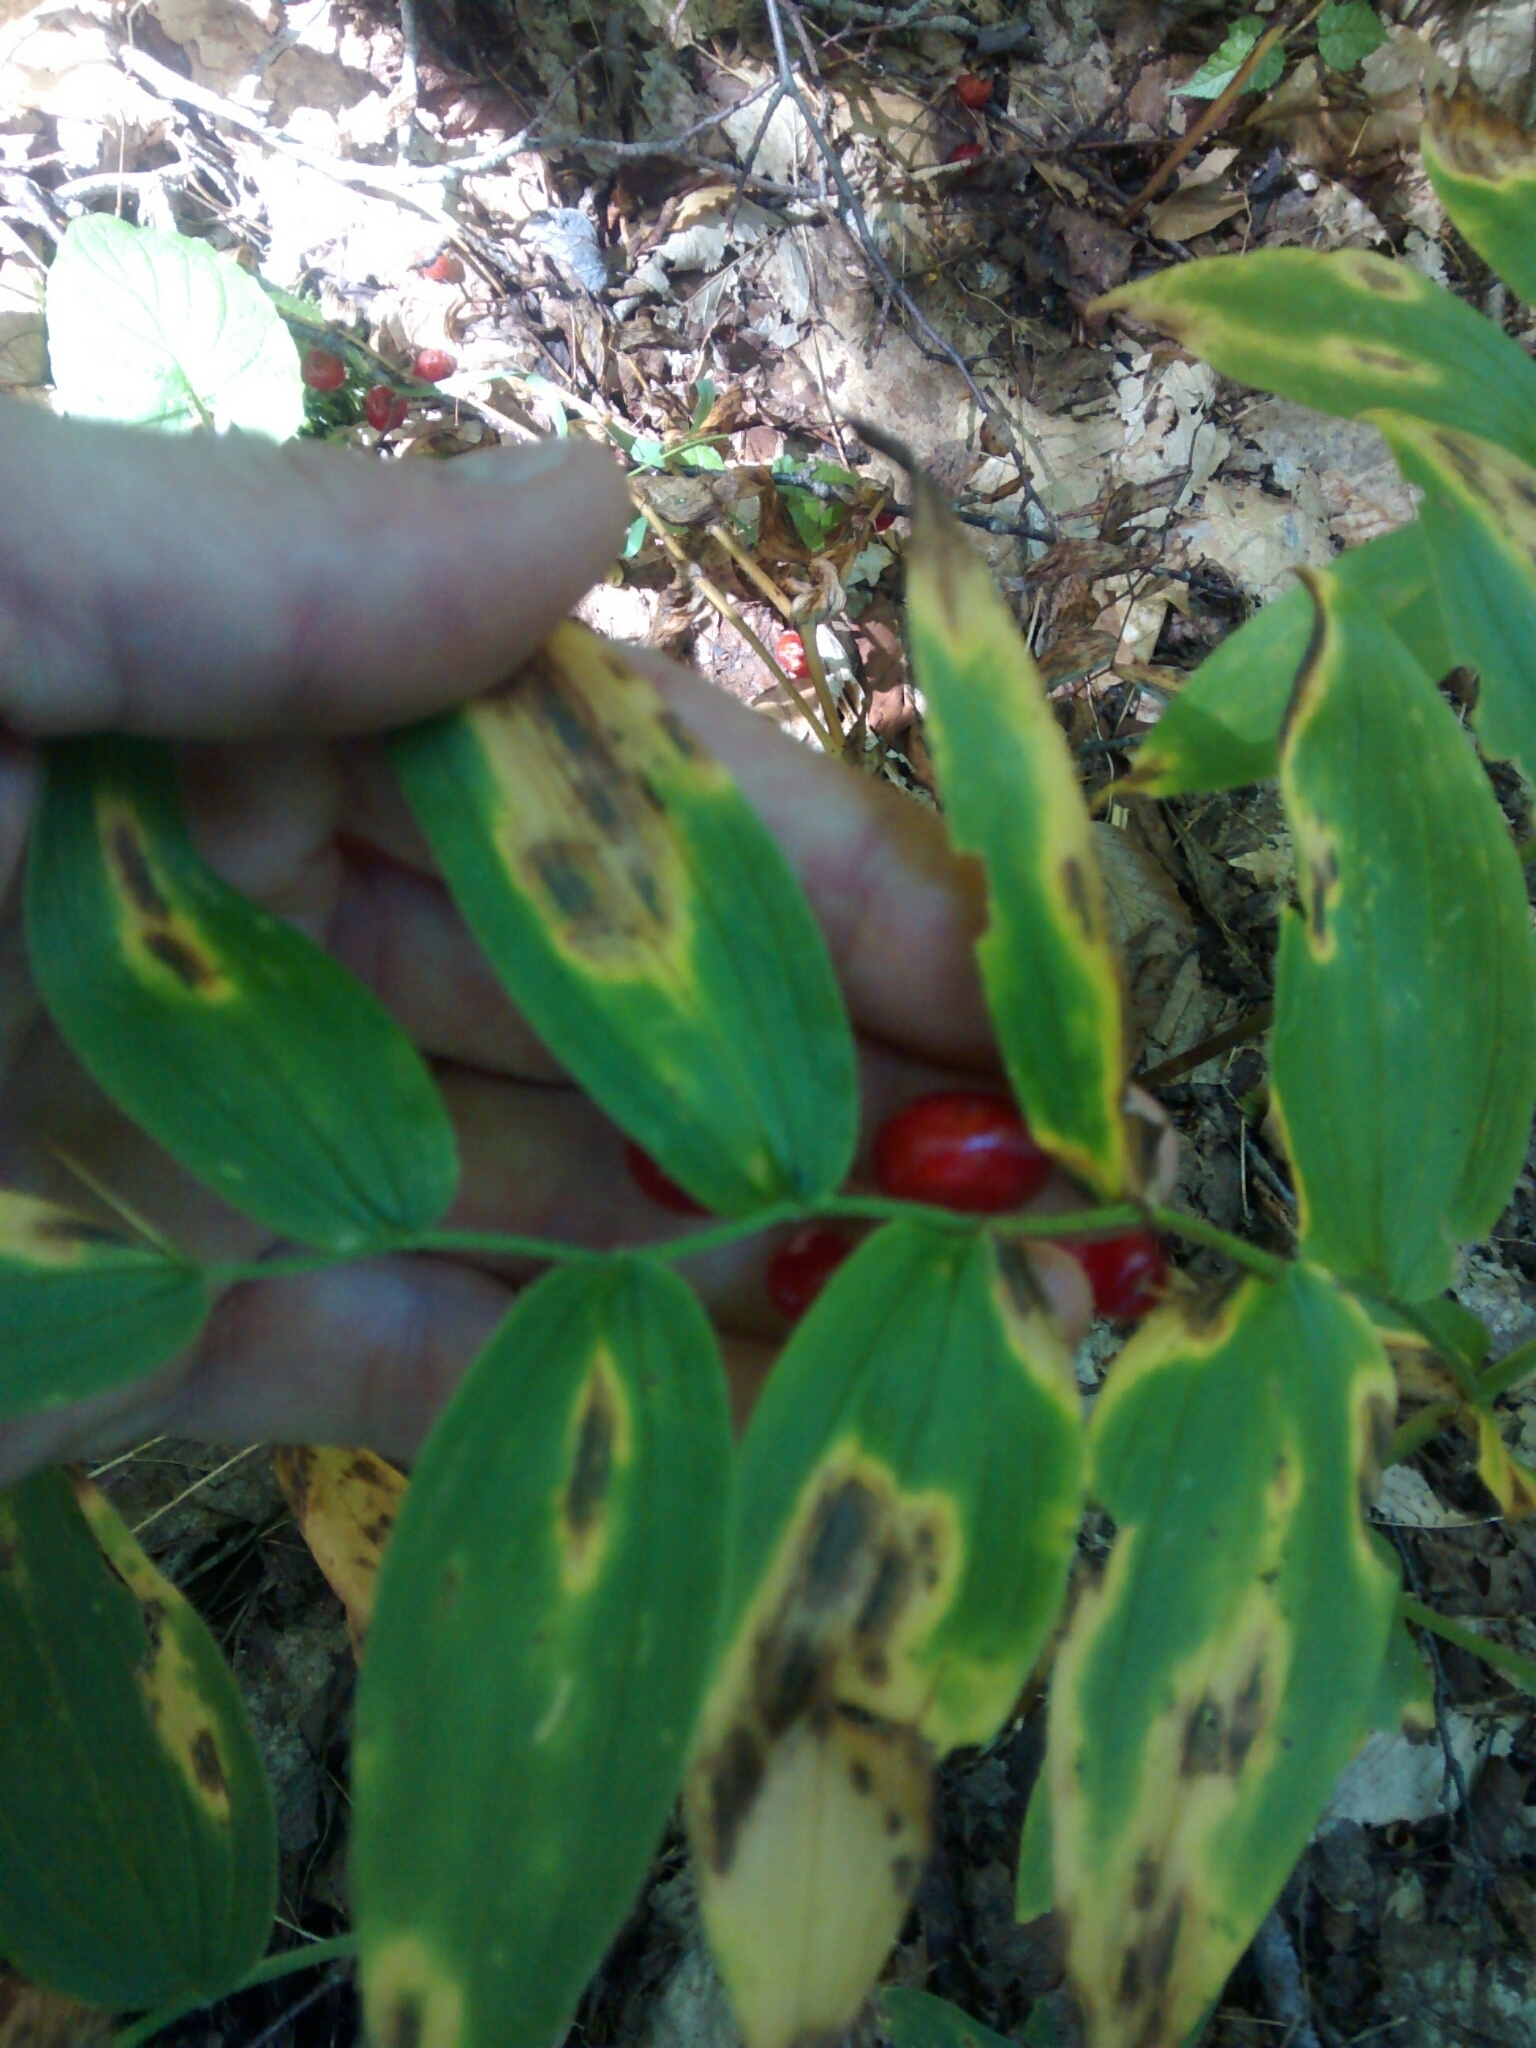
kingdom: Plantae
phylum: Tracheophyta
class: Liliopsida
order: Liliales
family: Liliaceae
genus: Streptopus
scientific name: Streptopus lanceolatus
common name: Rose mandarin
